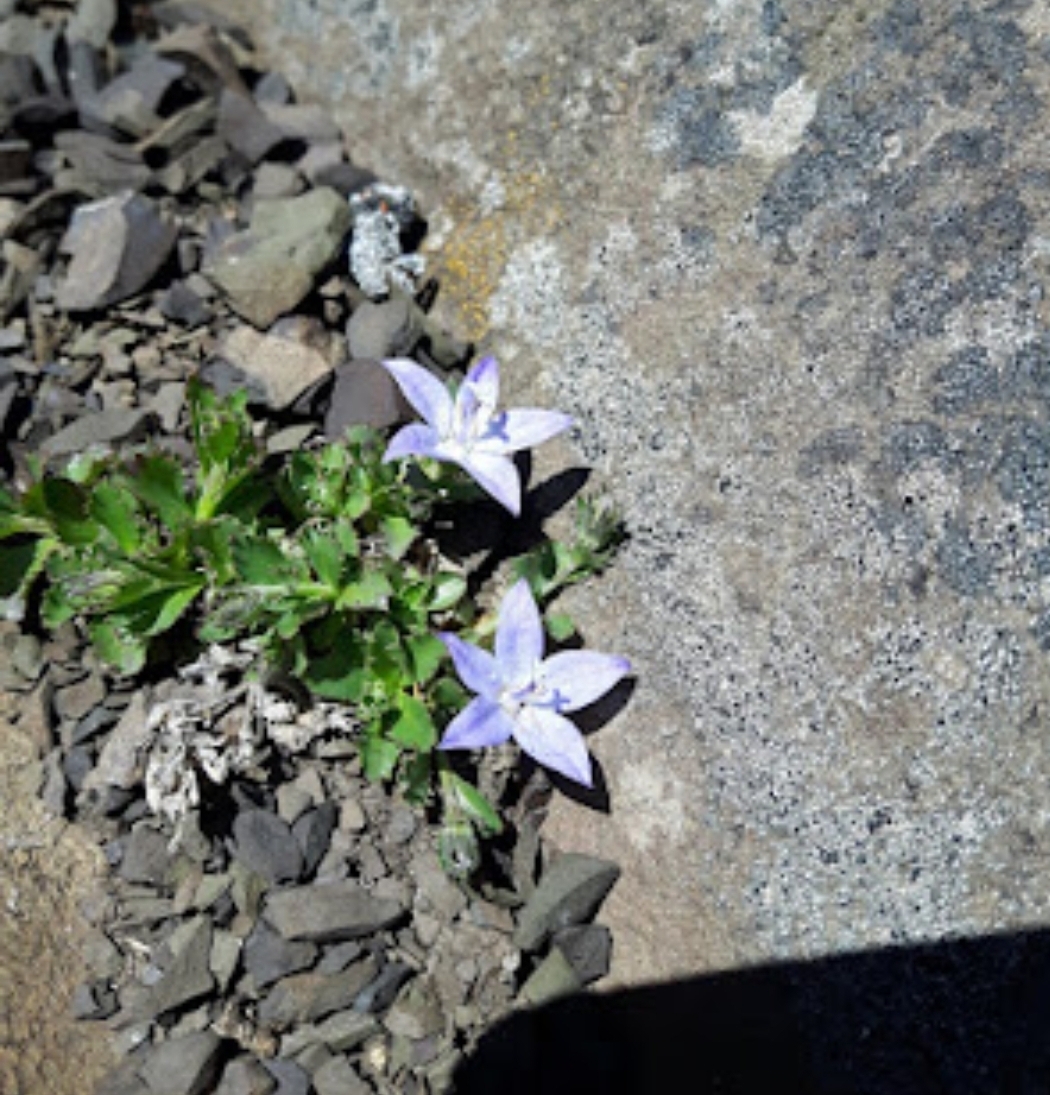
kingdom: Plantae
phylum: Tracheophyta
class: Magnoliopsida
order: Asterales
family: Campanulaceae
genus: Campanula
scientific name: Campanula piperi
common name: Olympic bellflower
